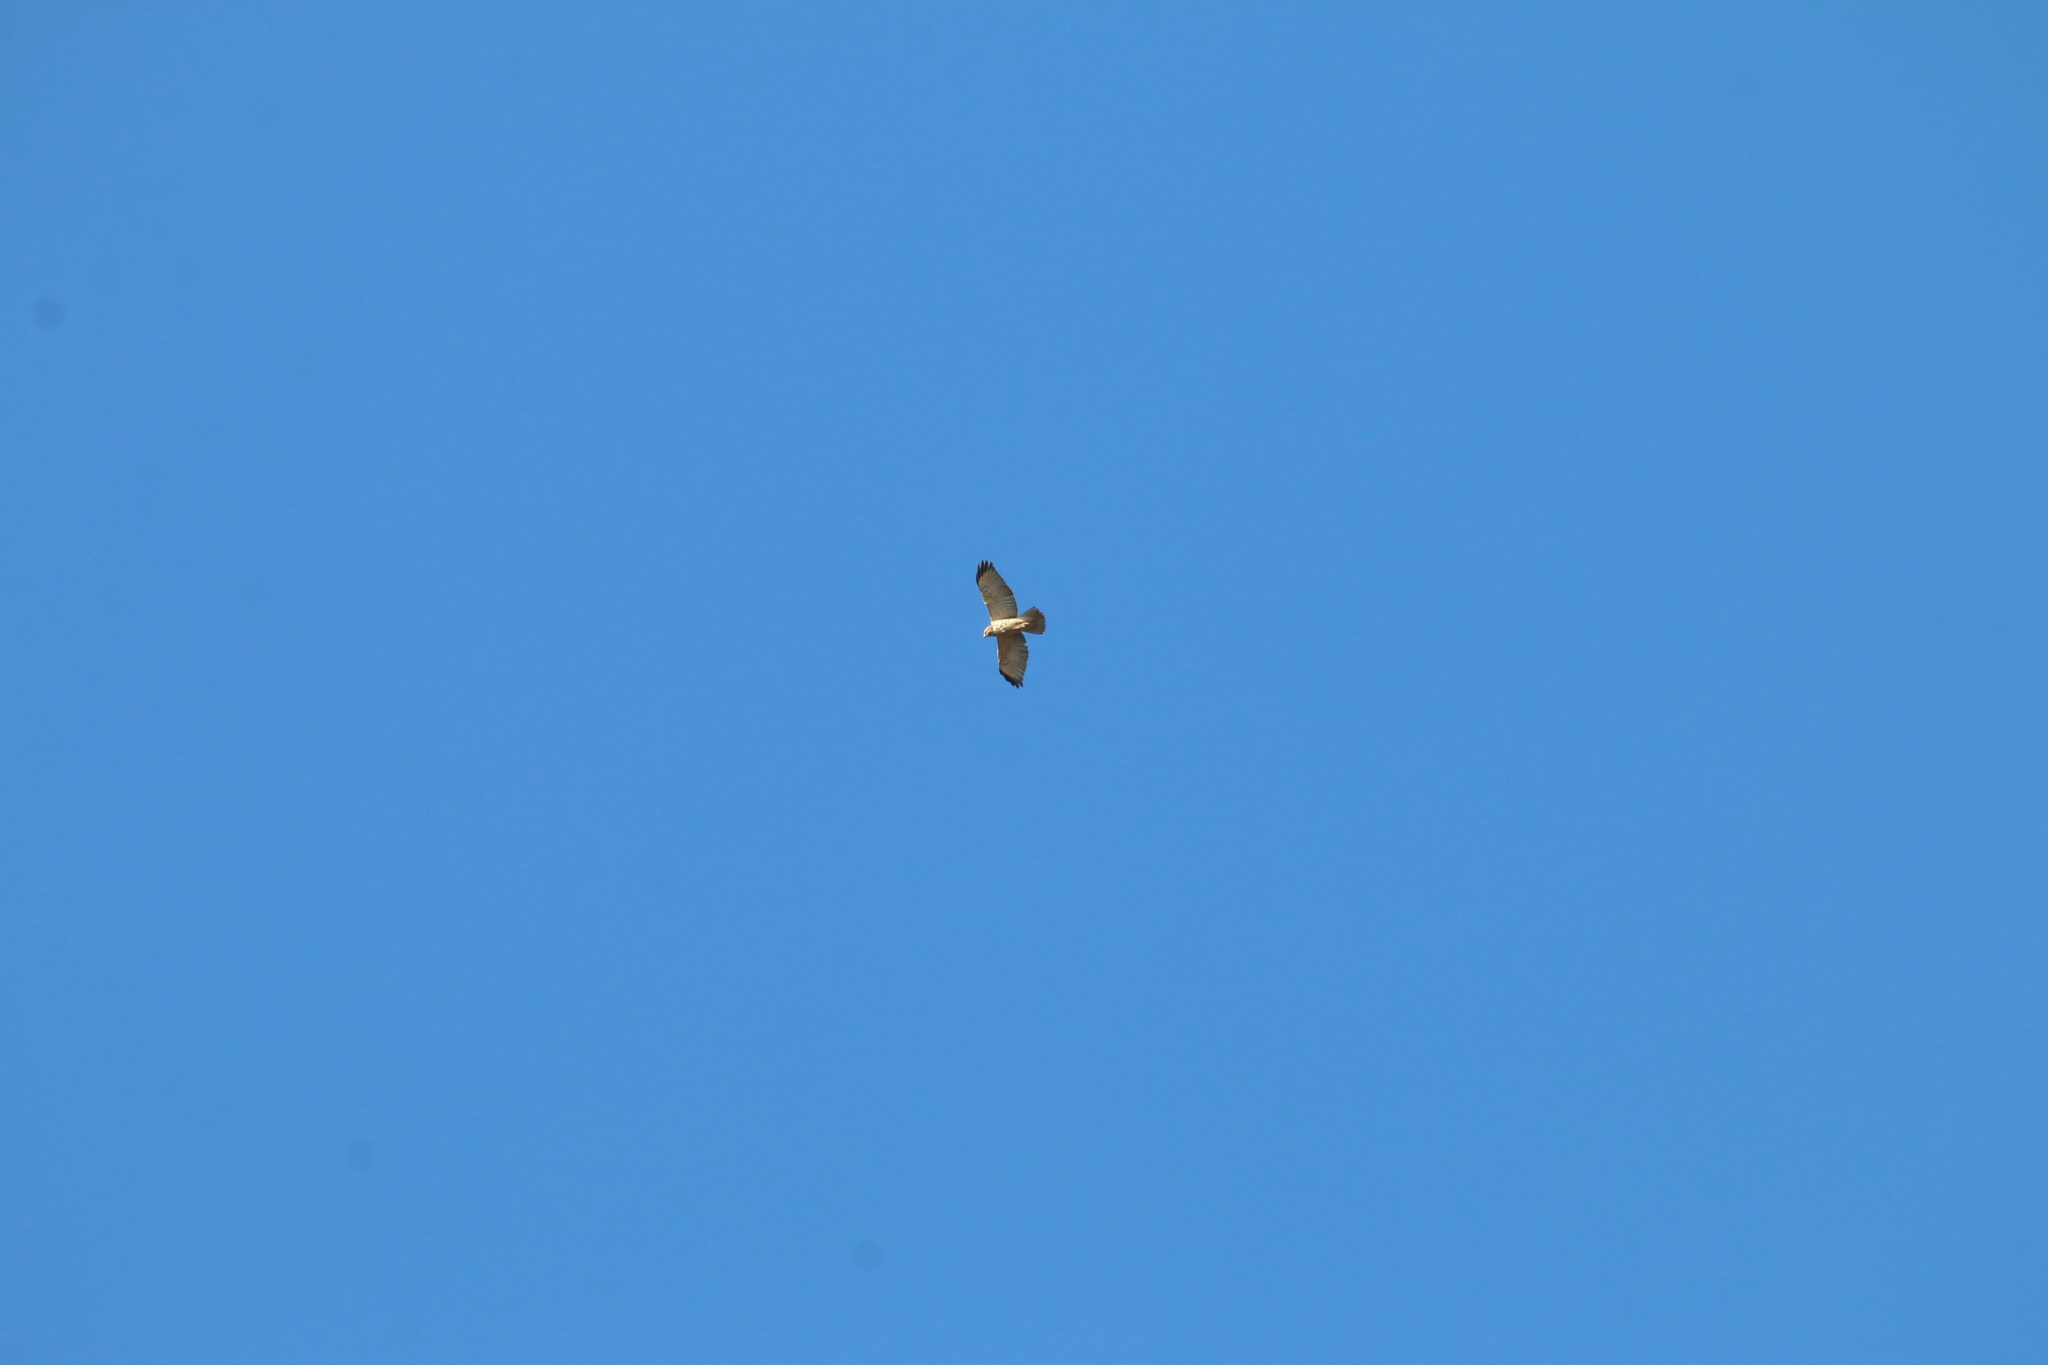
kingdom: Animalia
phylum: Chordata
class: Aves
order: Accipitriformes
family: Accipitridae
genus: Buteo
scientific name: Buteo lineatus
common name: Red-shouldered hawk
